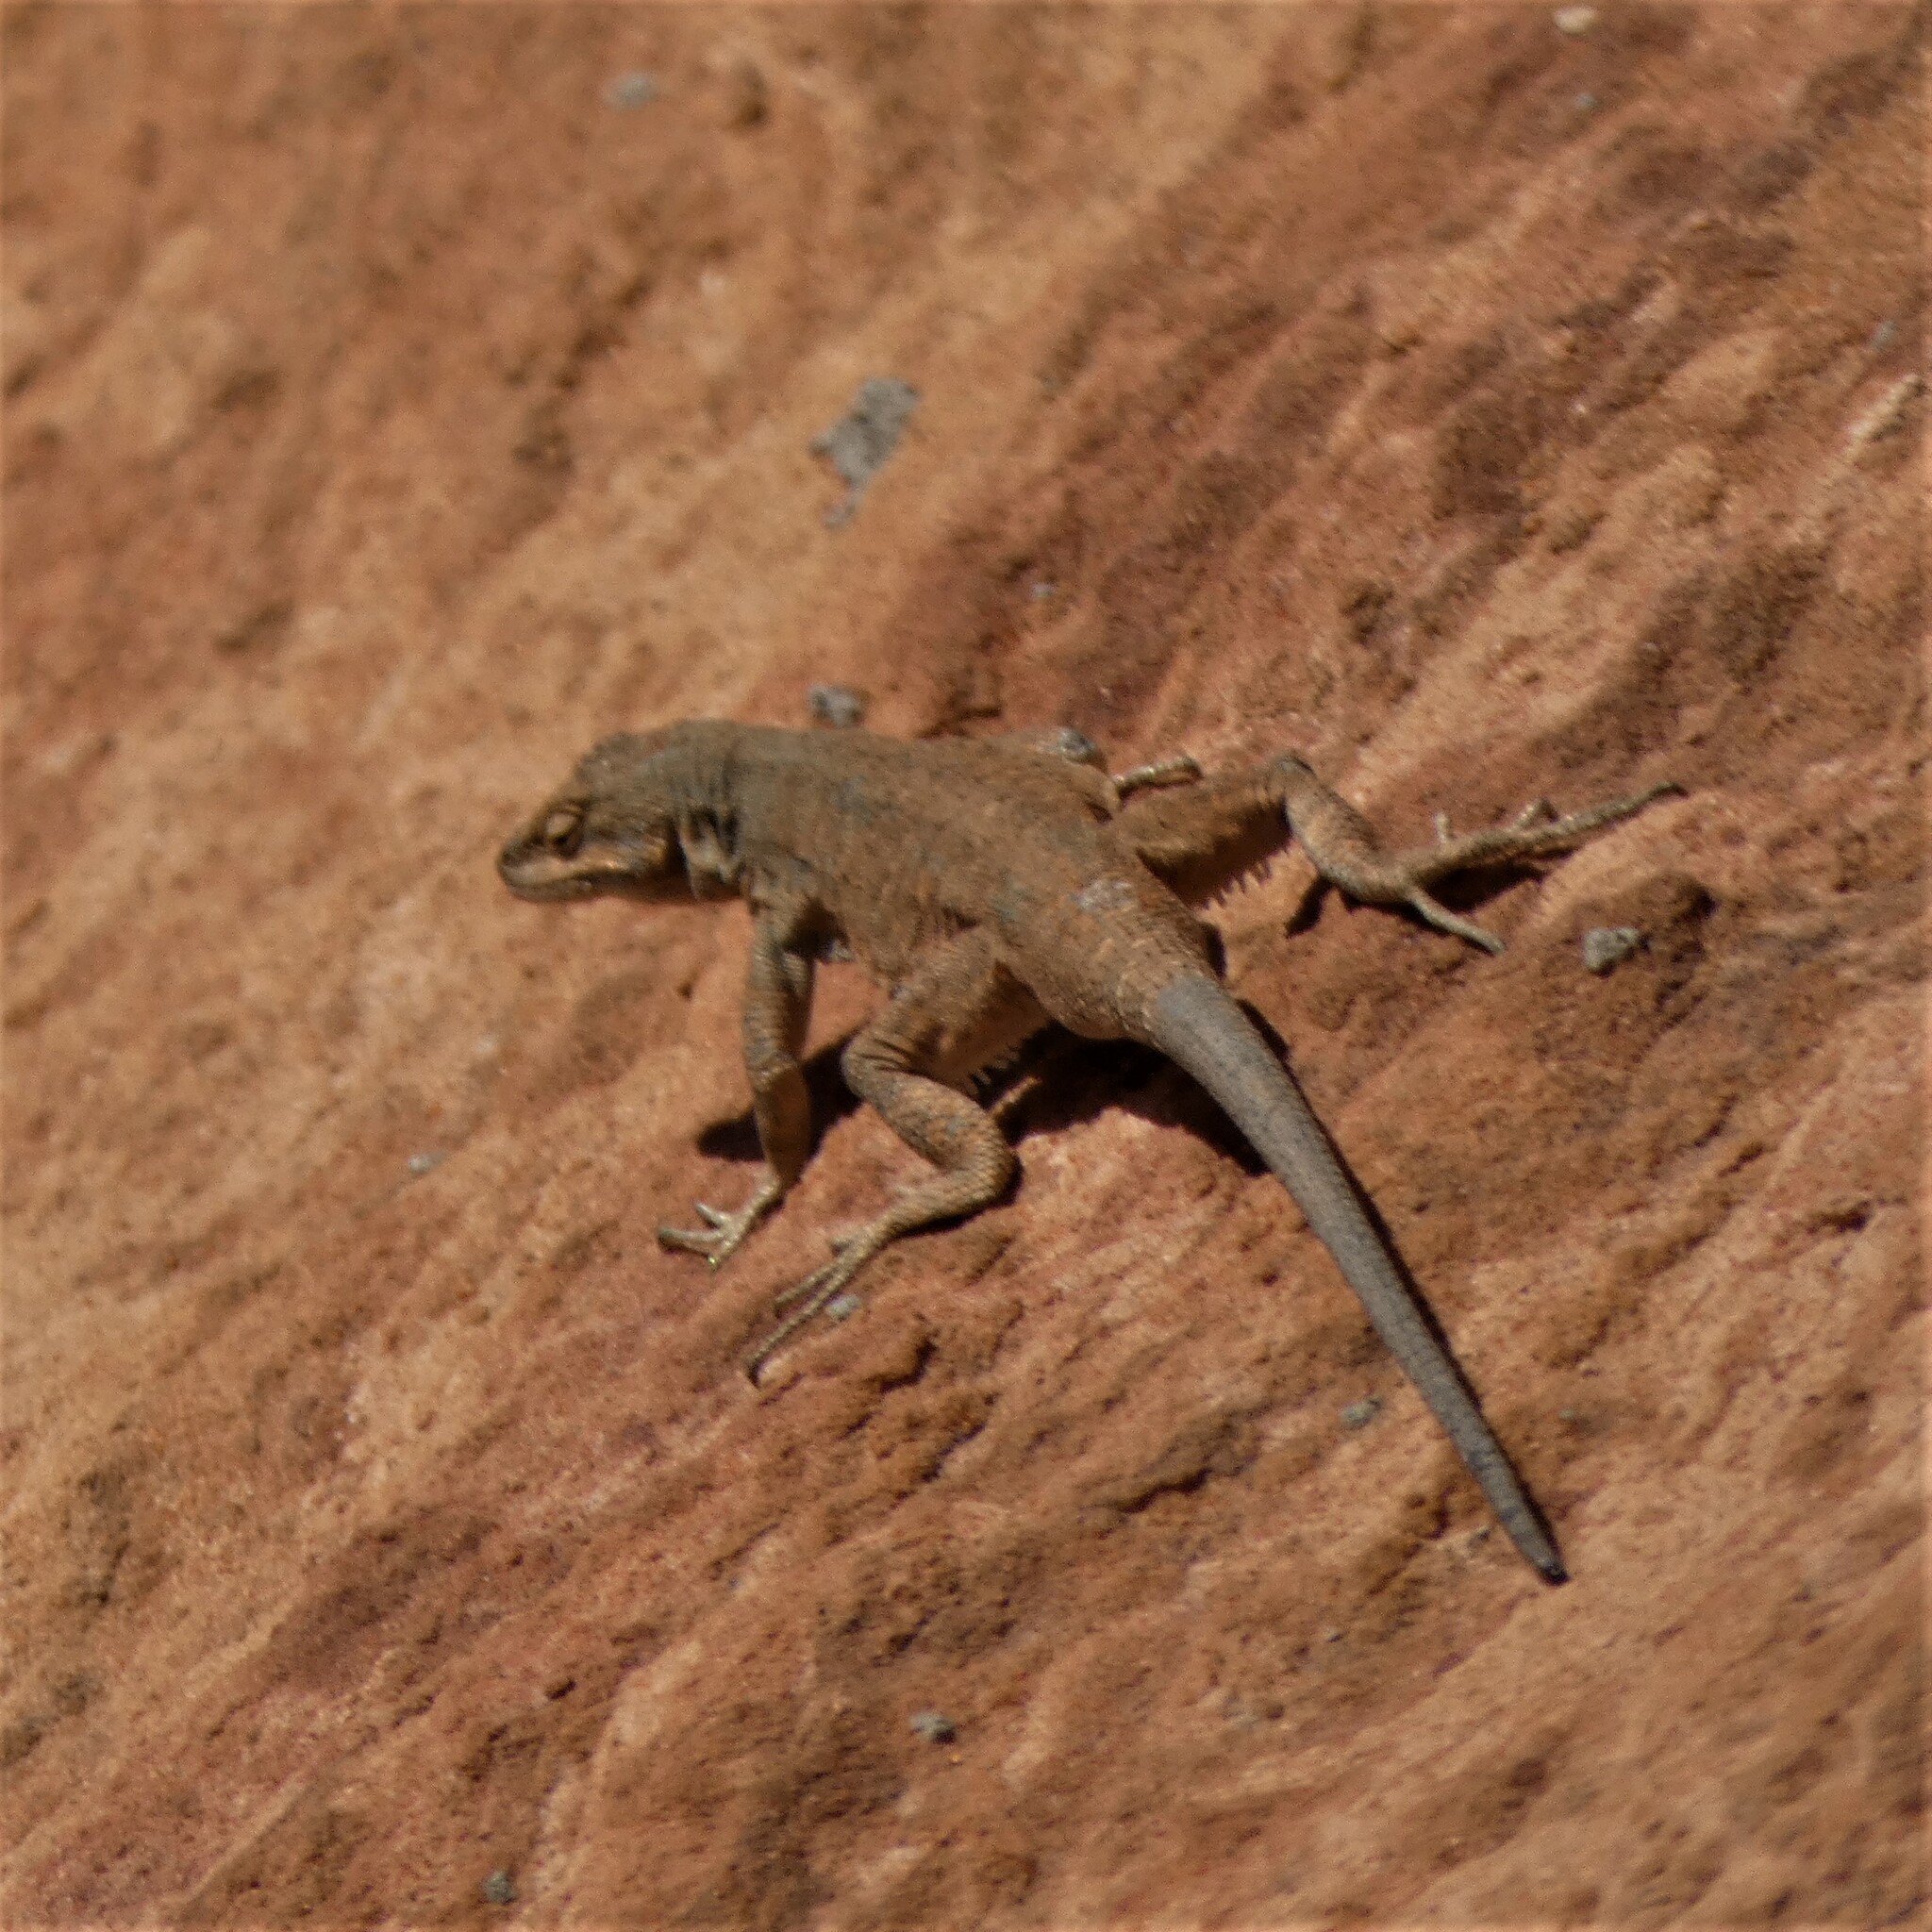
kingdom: Animalia
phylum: Chordata
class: Squamata
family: Phrynosomatidae
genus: Urosaurus
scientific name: Urosaurus ornatus
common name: Ornate tree lizard
